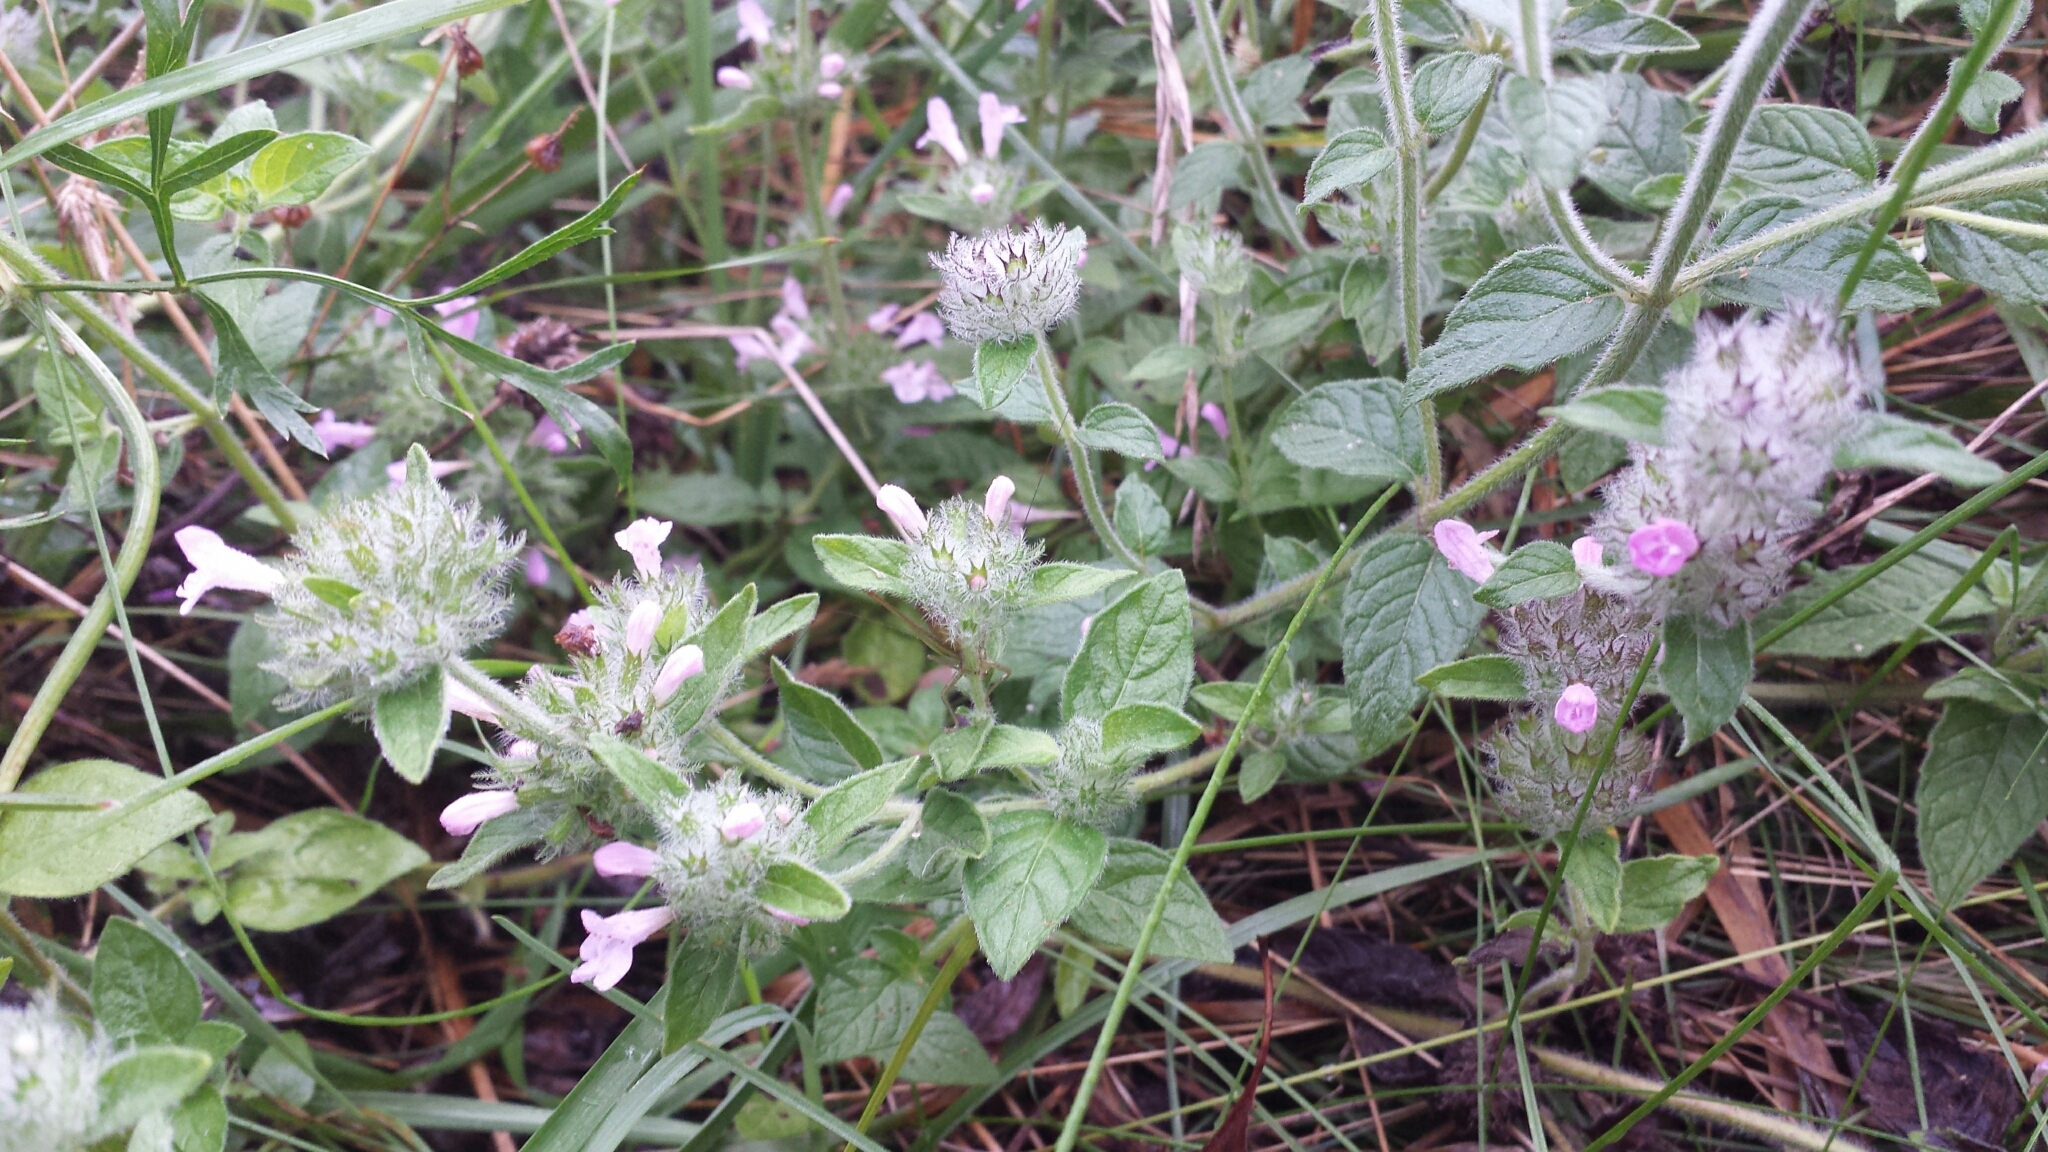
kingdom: Plantae
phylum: Tracheophyta
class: Magnoliopsida
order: Lamiales
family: Lamiaceae
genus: Clinopodium
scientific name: Clinopodium vulgare
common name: Wild basil
